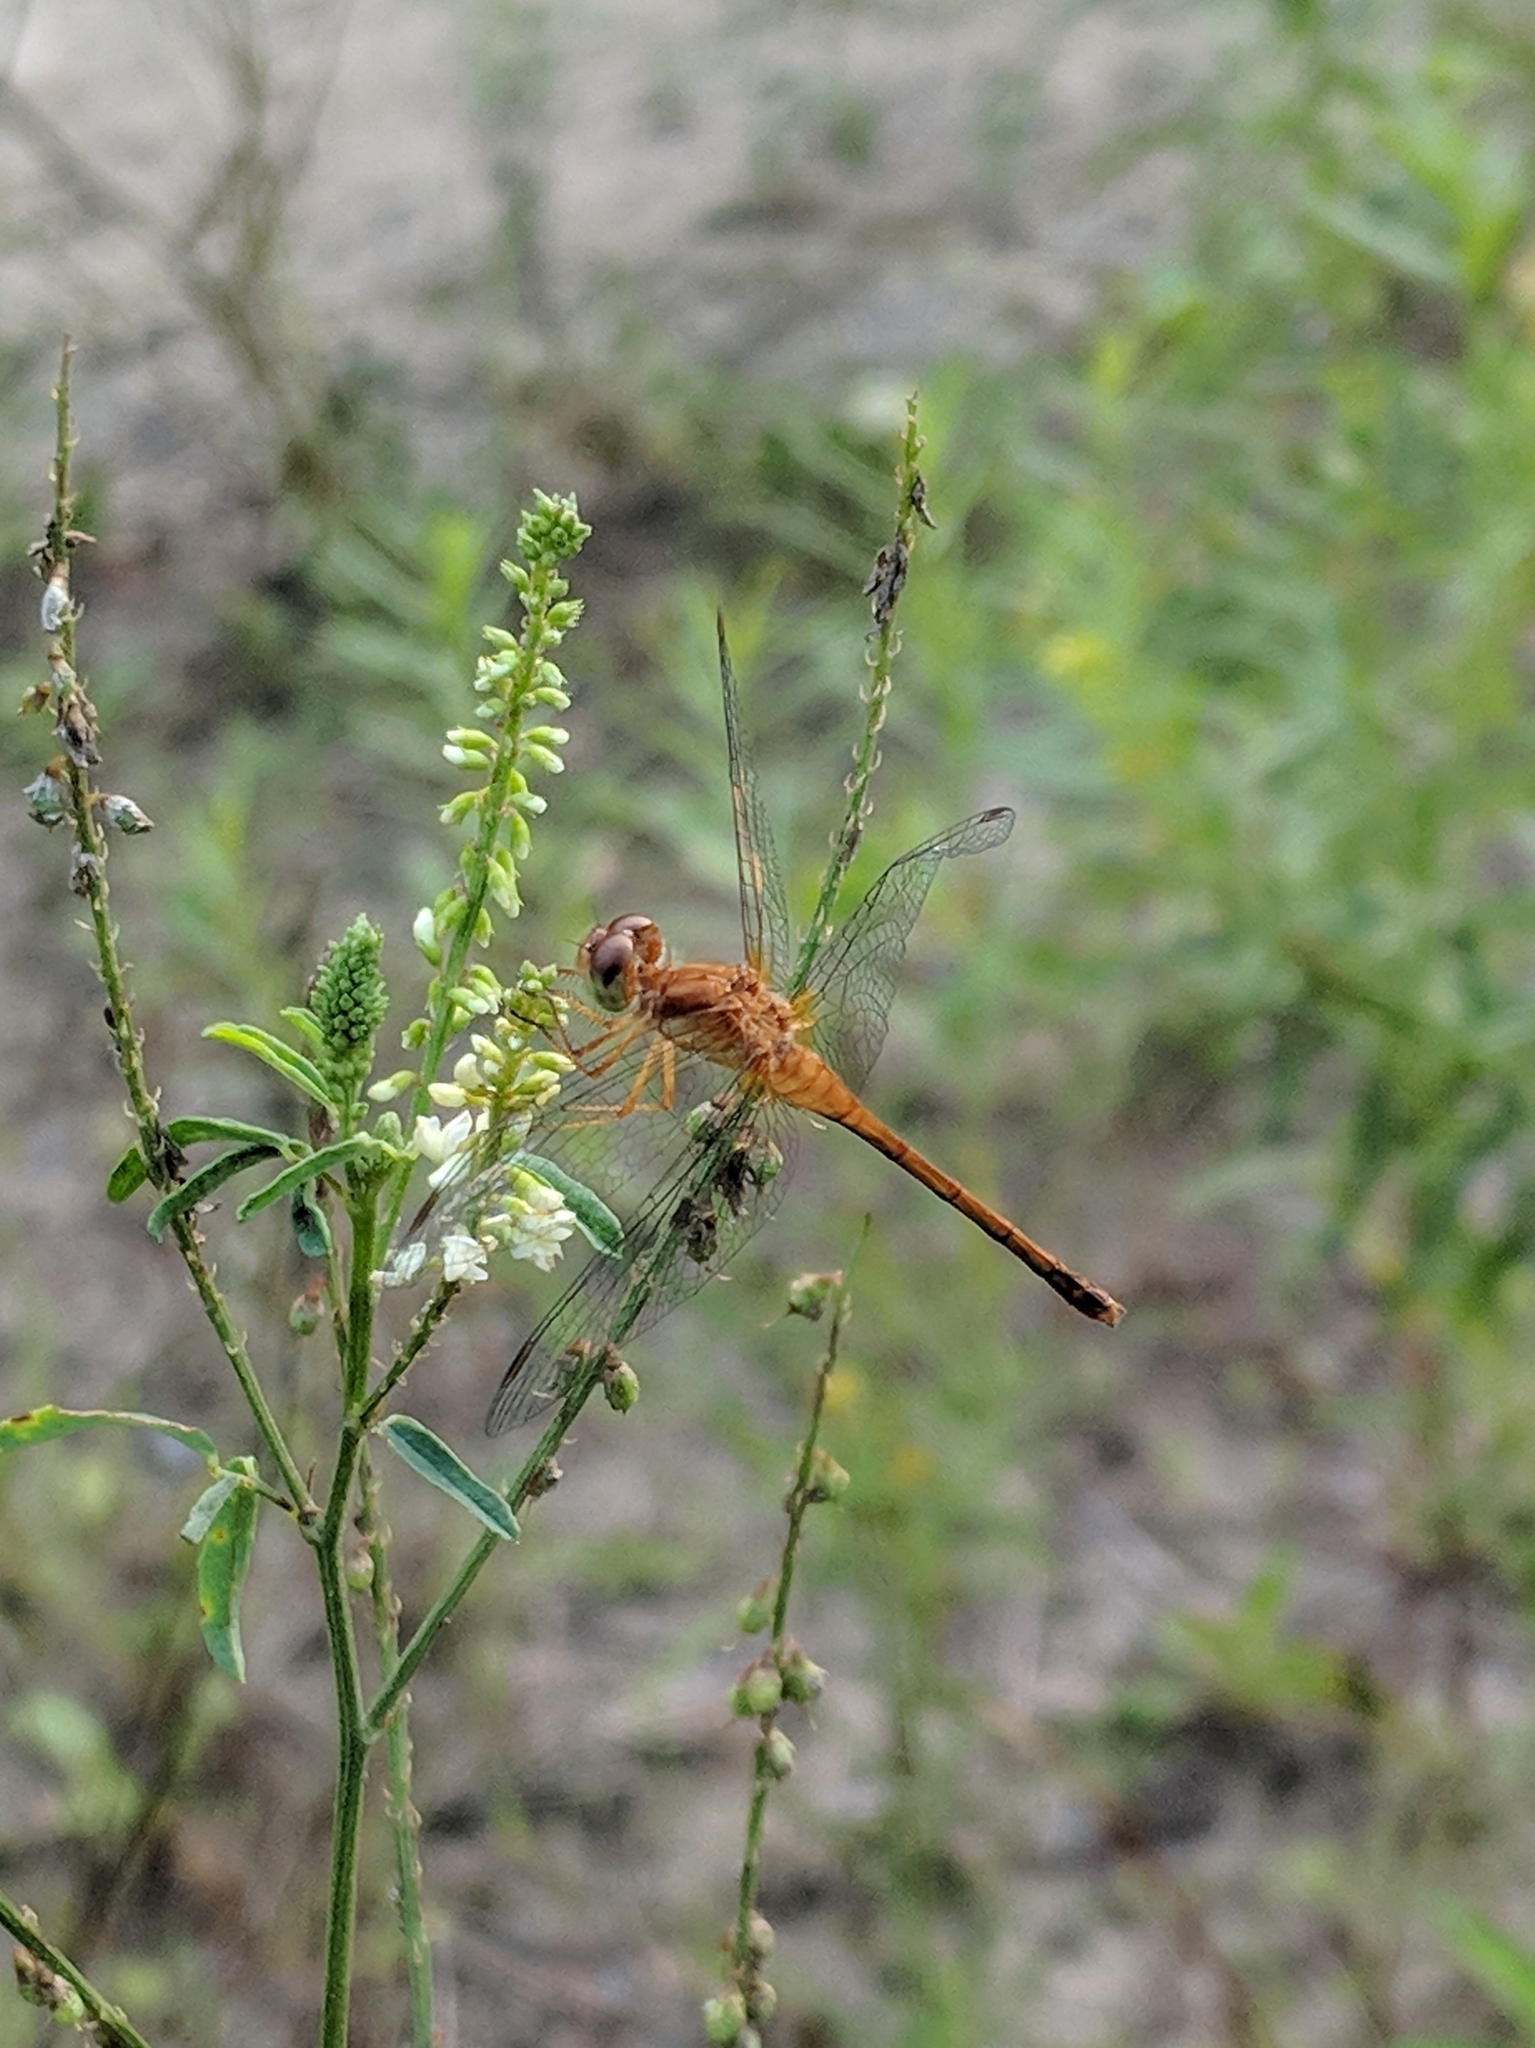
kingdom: Animalia
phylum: Arthropoda
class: Insecta
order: Odonata
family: Libellulidae
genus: Sympetrum
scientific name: Sympetrum vicinum
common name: Autumn meadowhawk
